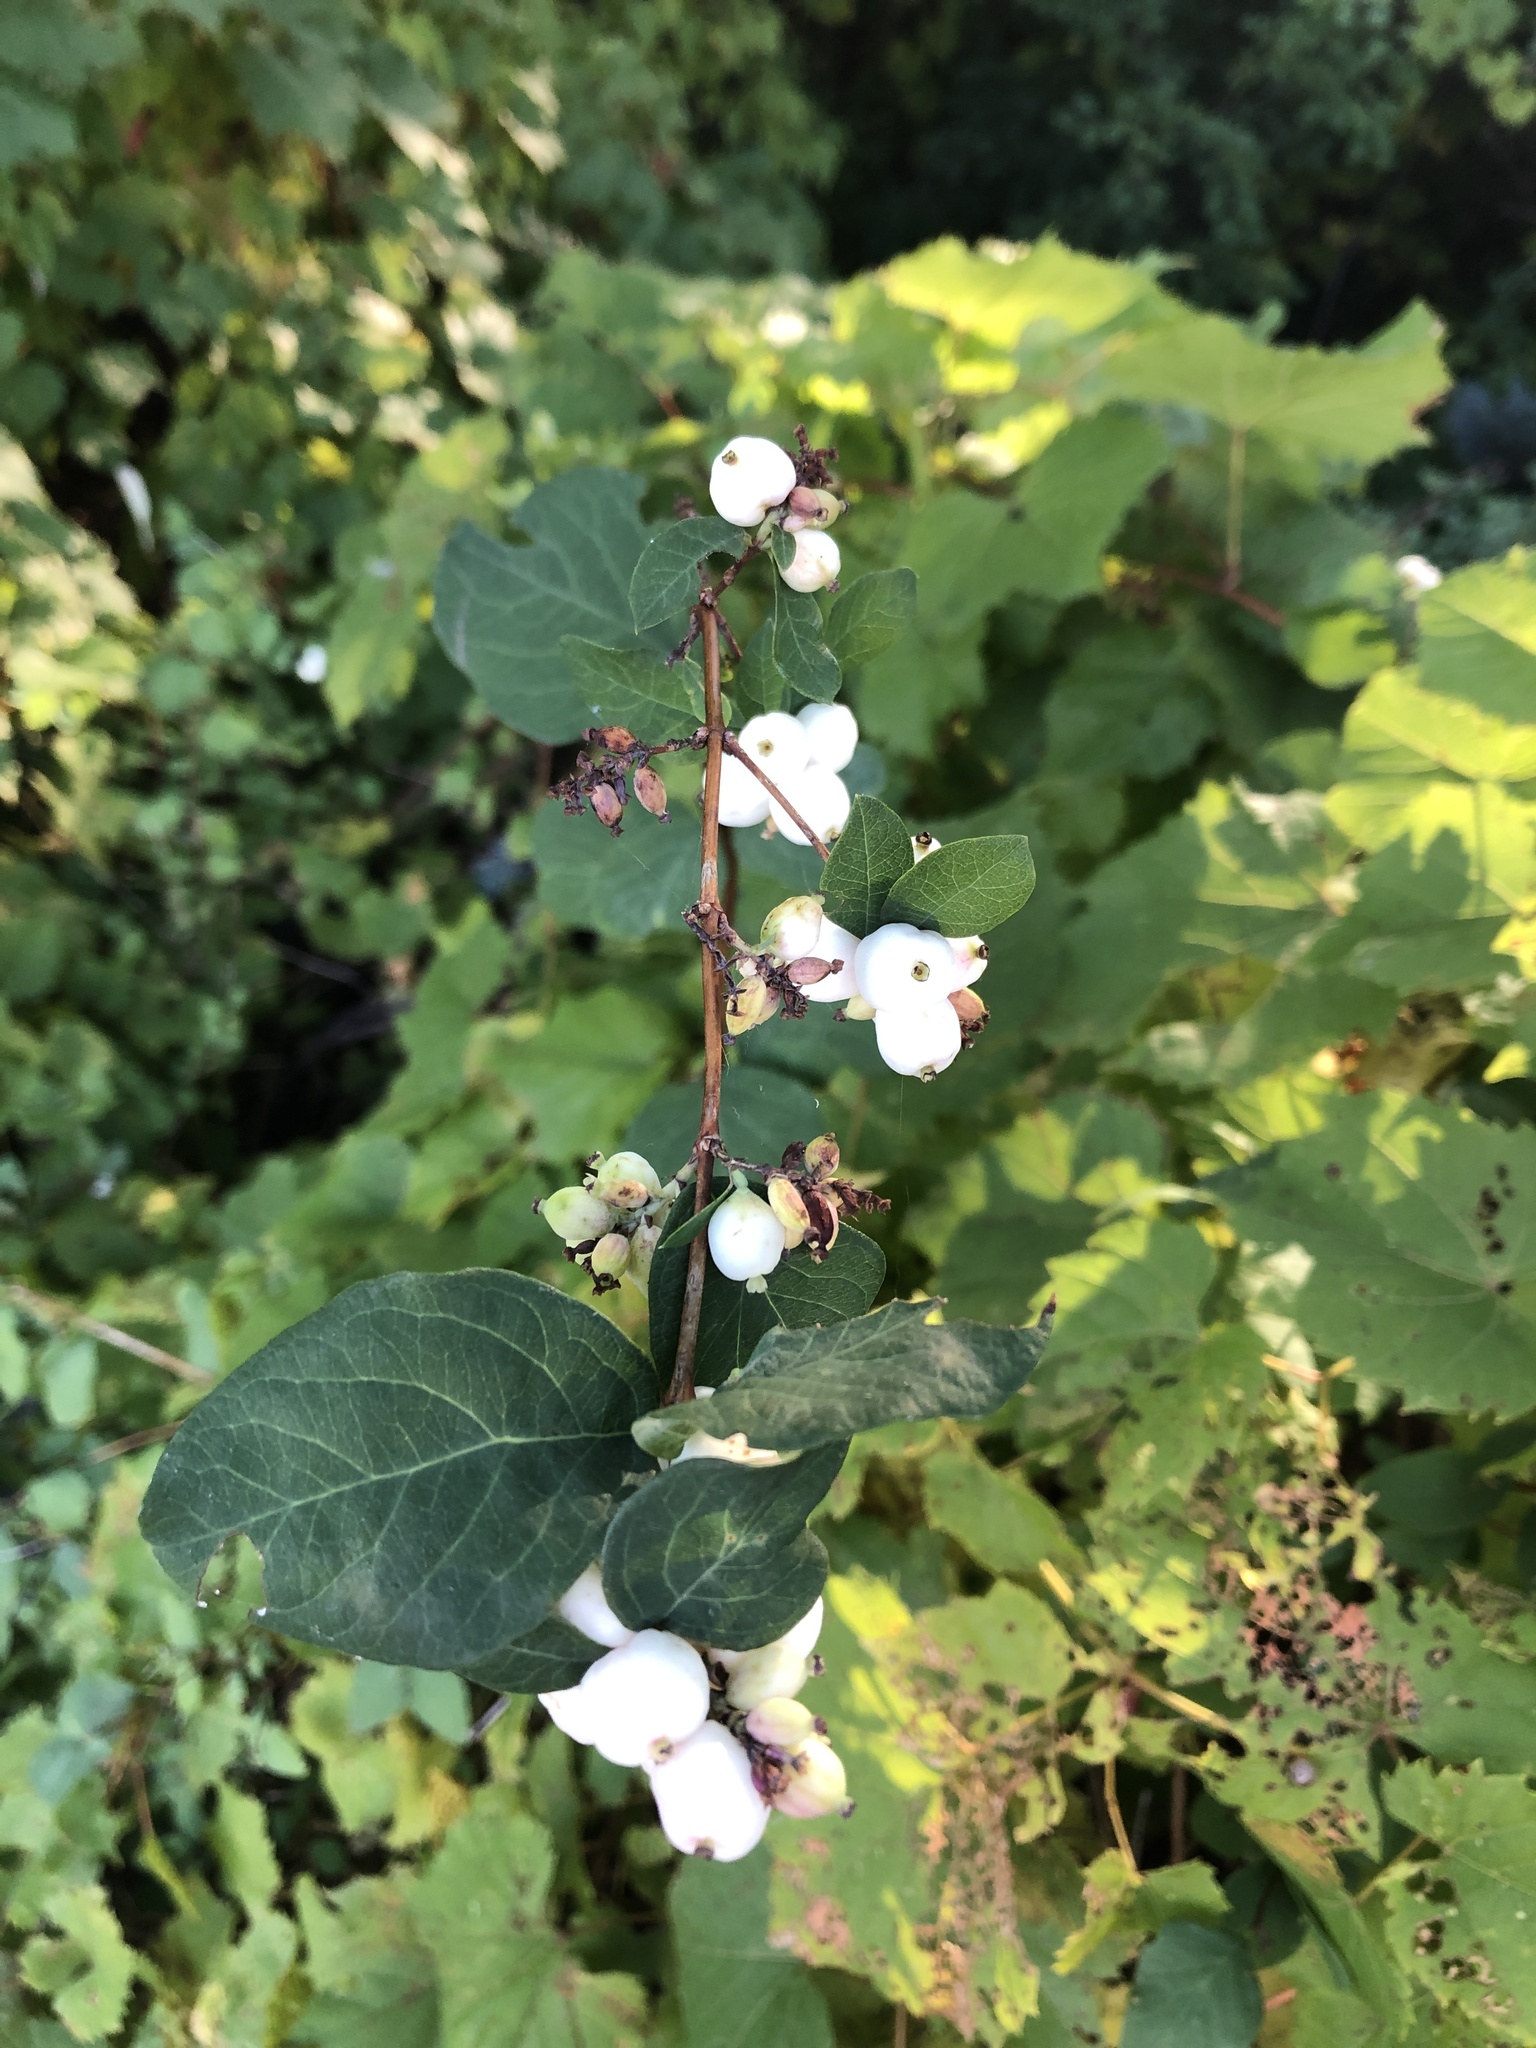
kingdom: Plantae
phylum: Tracheophyta
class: Magnoliopsida
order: Dipsacales
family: Caprifoliaceae
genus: Symphoricarpos
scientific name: Symphoricarpos albus
